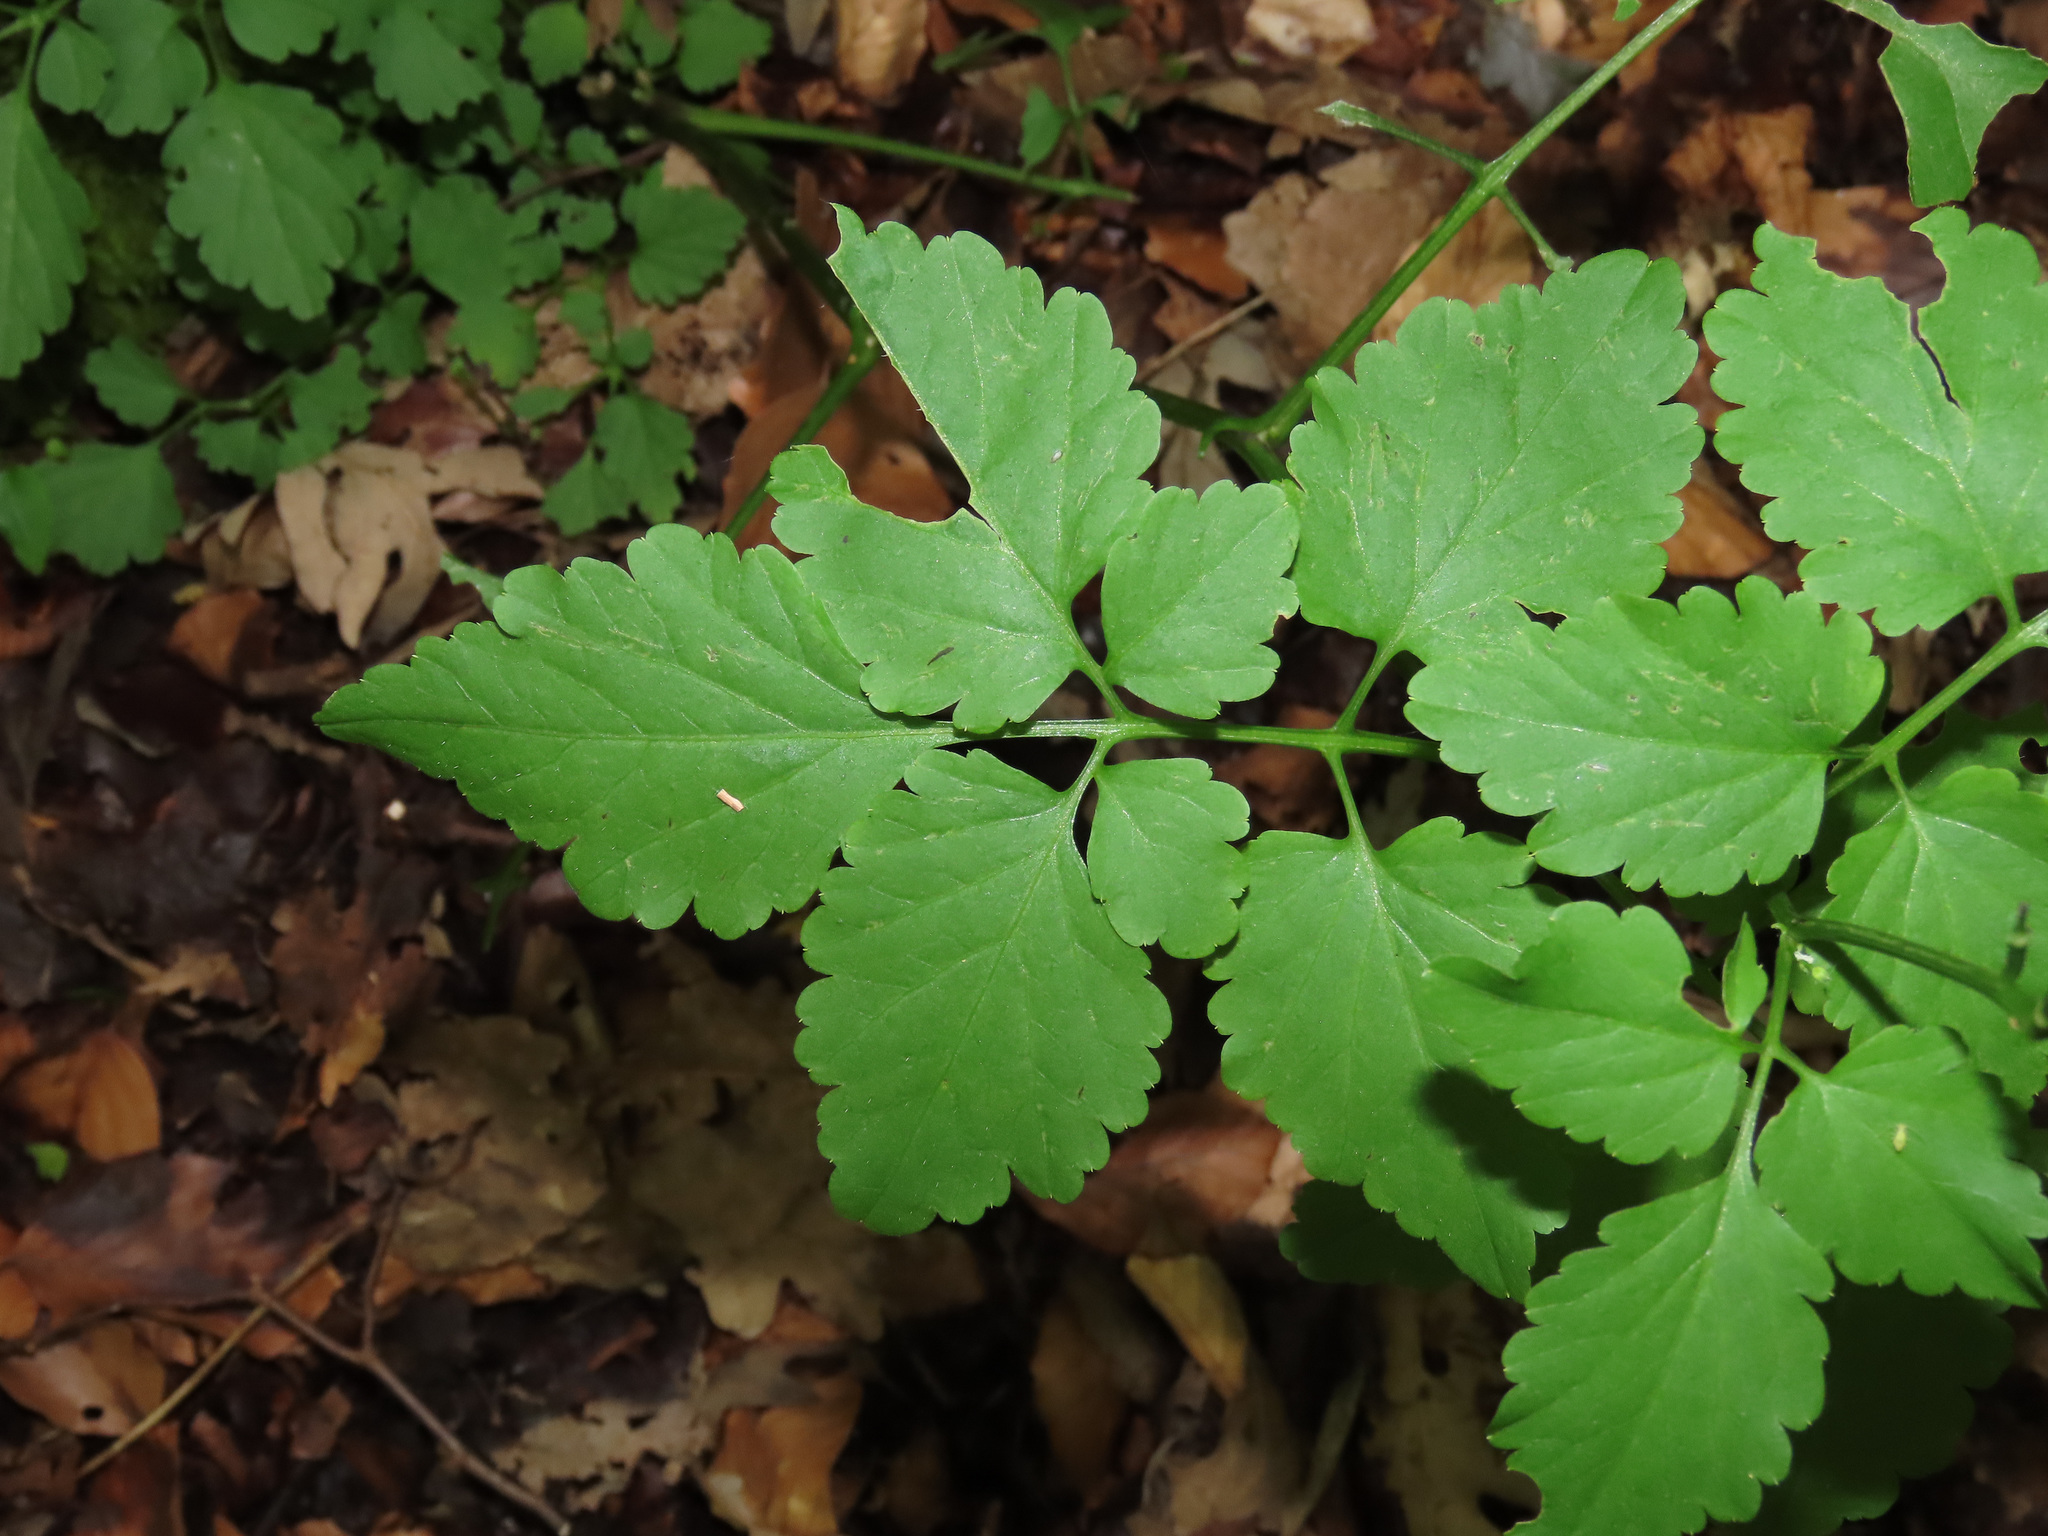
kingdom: Plantae
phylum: Tracheophyta
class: Magnoliopsida
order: Brassicales
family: Brassicaceae
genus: Cardamine
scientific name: Cardamine chelidonia
